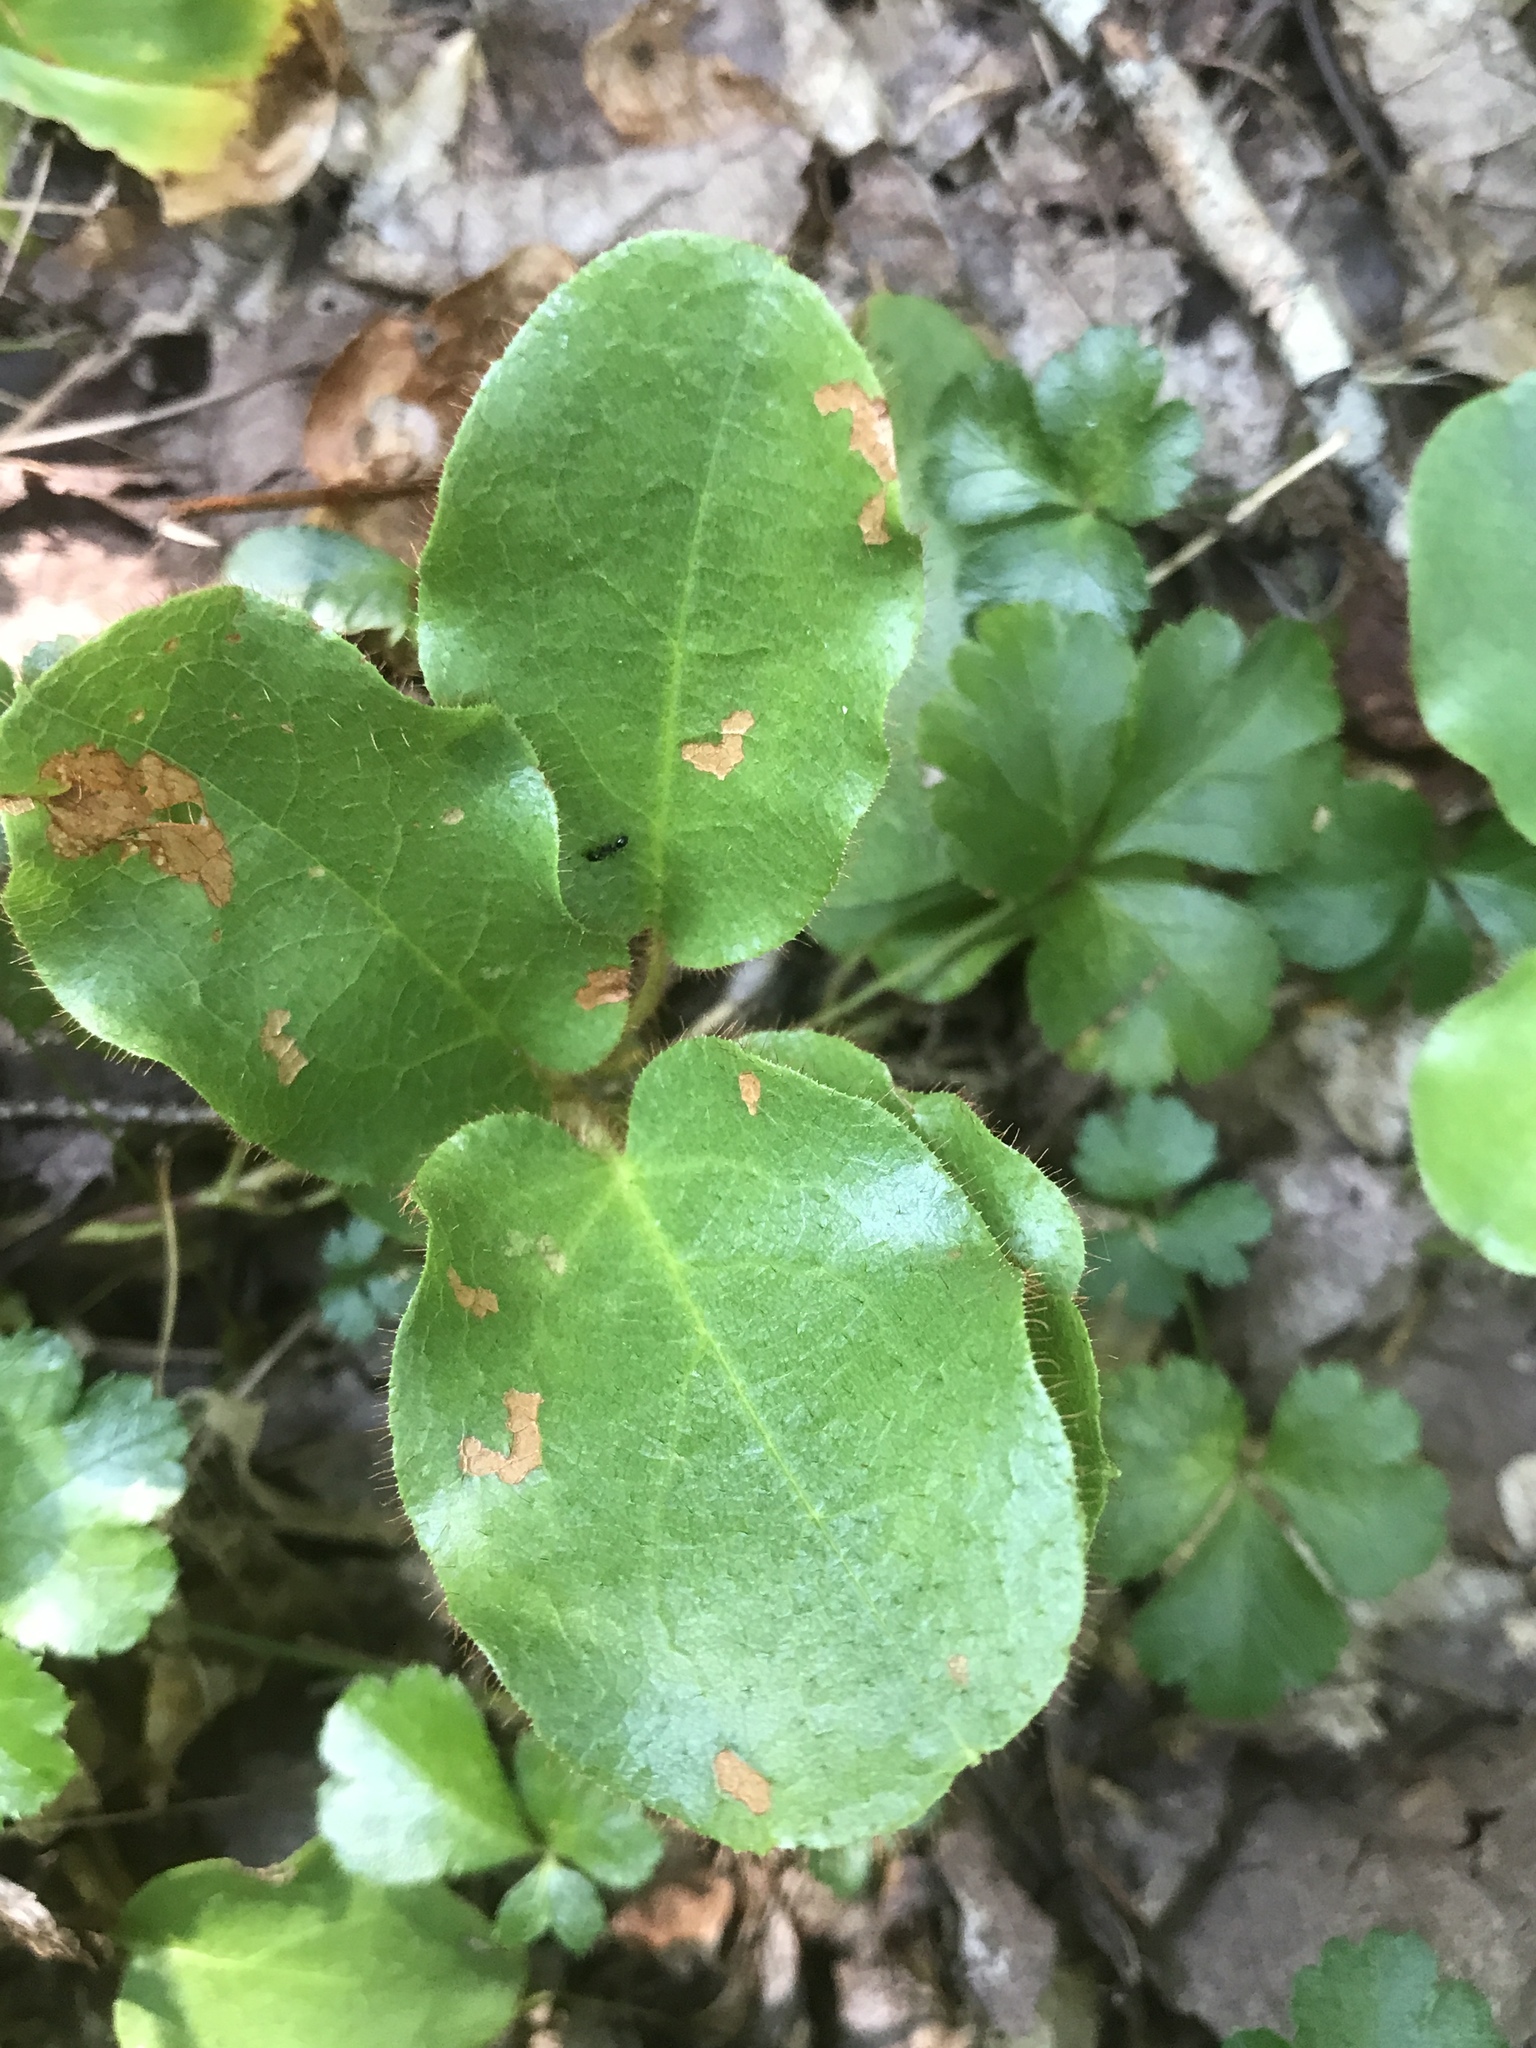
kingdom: Plantae
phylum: Tracheophyta
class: Magnoliopsida
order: Ericales
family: Ericaceae
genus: Epigaea
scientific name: Epigaea repens
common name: Gravelroot
